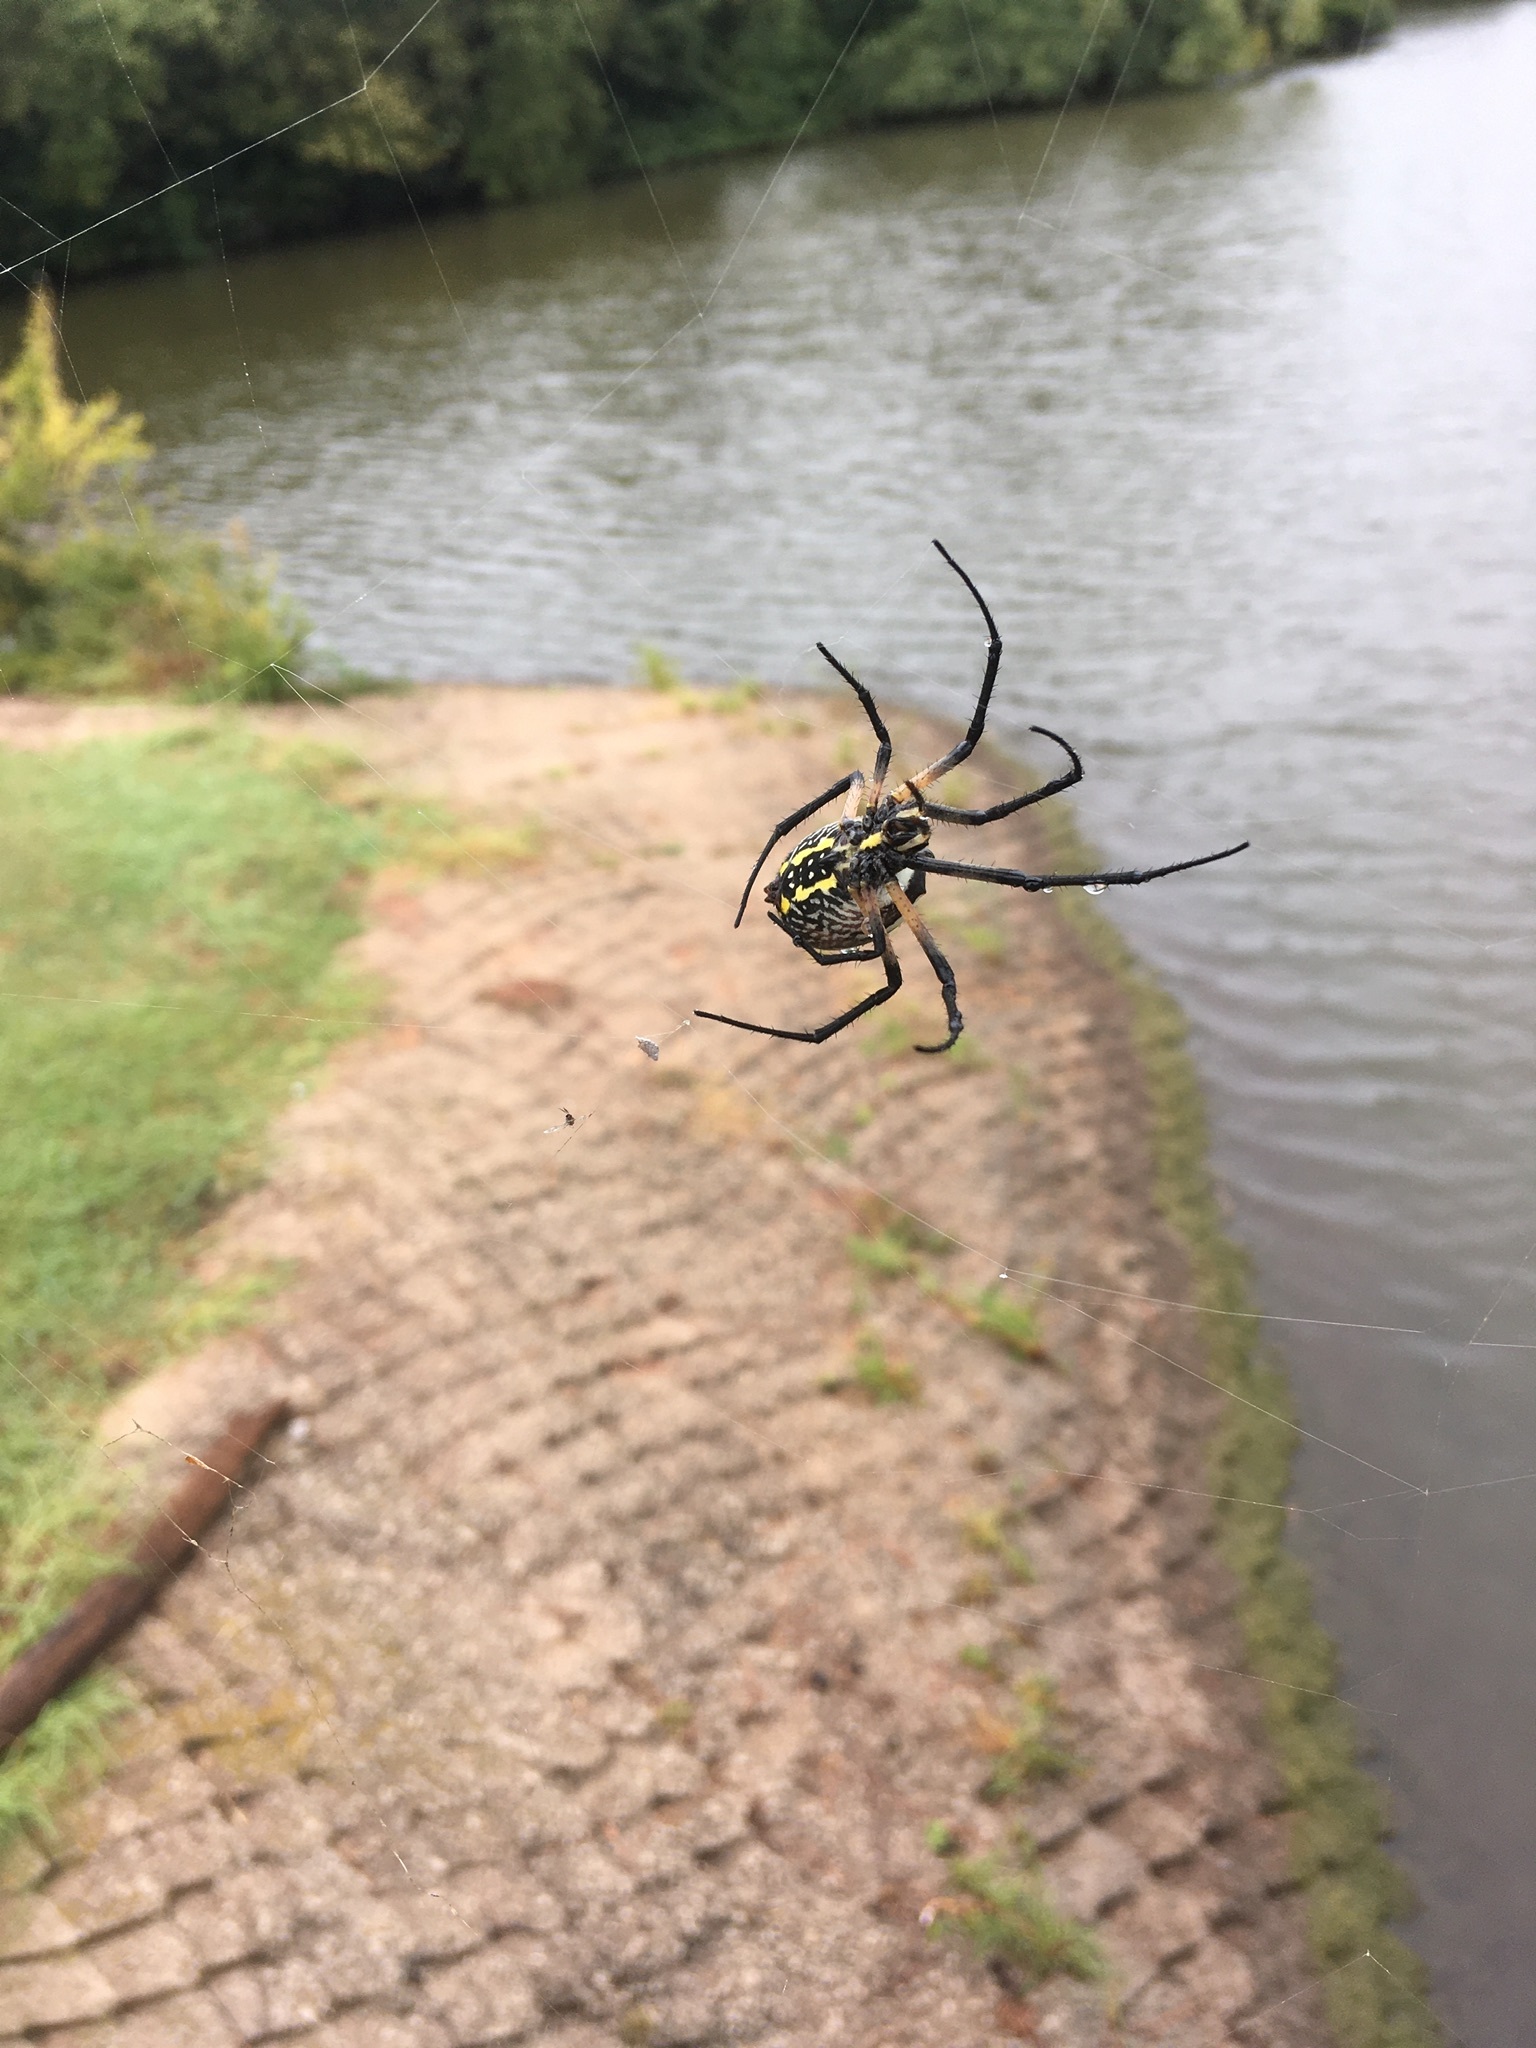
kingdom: Animalia
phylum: Arthropoda
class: Arachnida
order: Araneae
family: Araneidae
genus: Argiope
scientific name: Argiope aurantia
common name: Orb weavers
